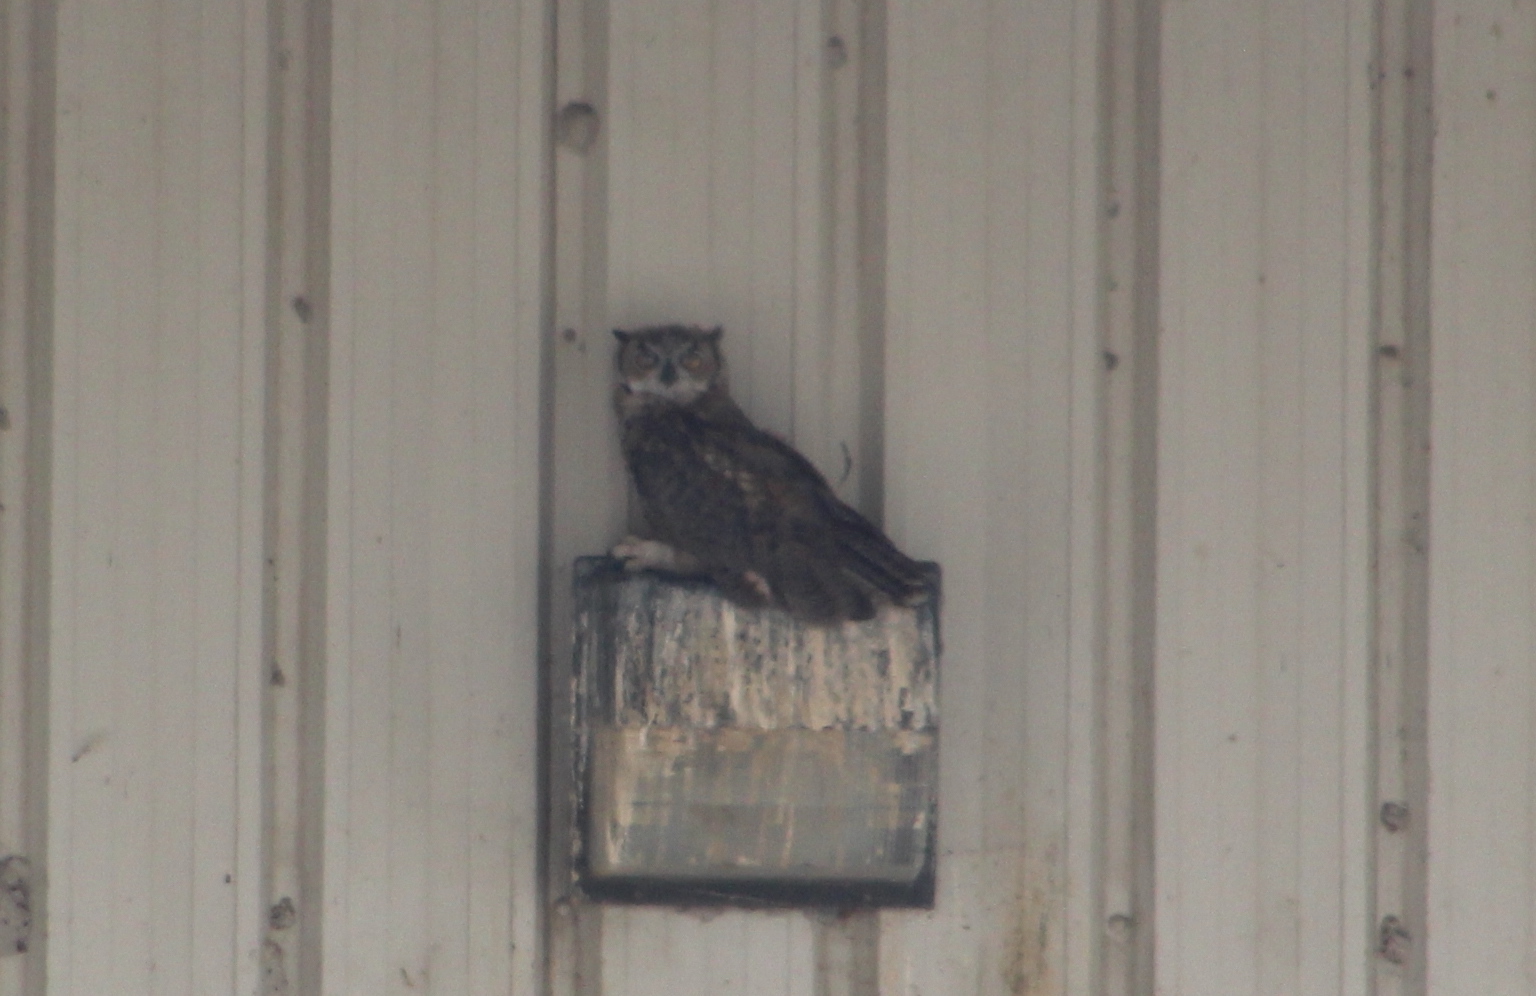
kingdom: Animalia
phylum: Chordata
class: Aves
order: Strigiformes
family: Strigidae
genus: Bubo
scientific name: Bubo virginianus
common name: Great horned owl
